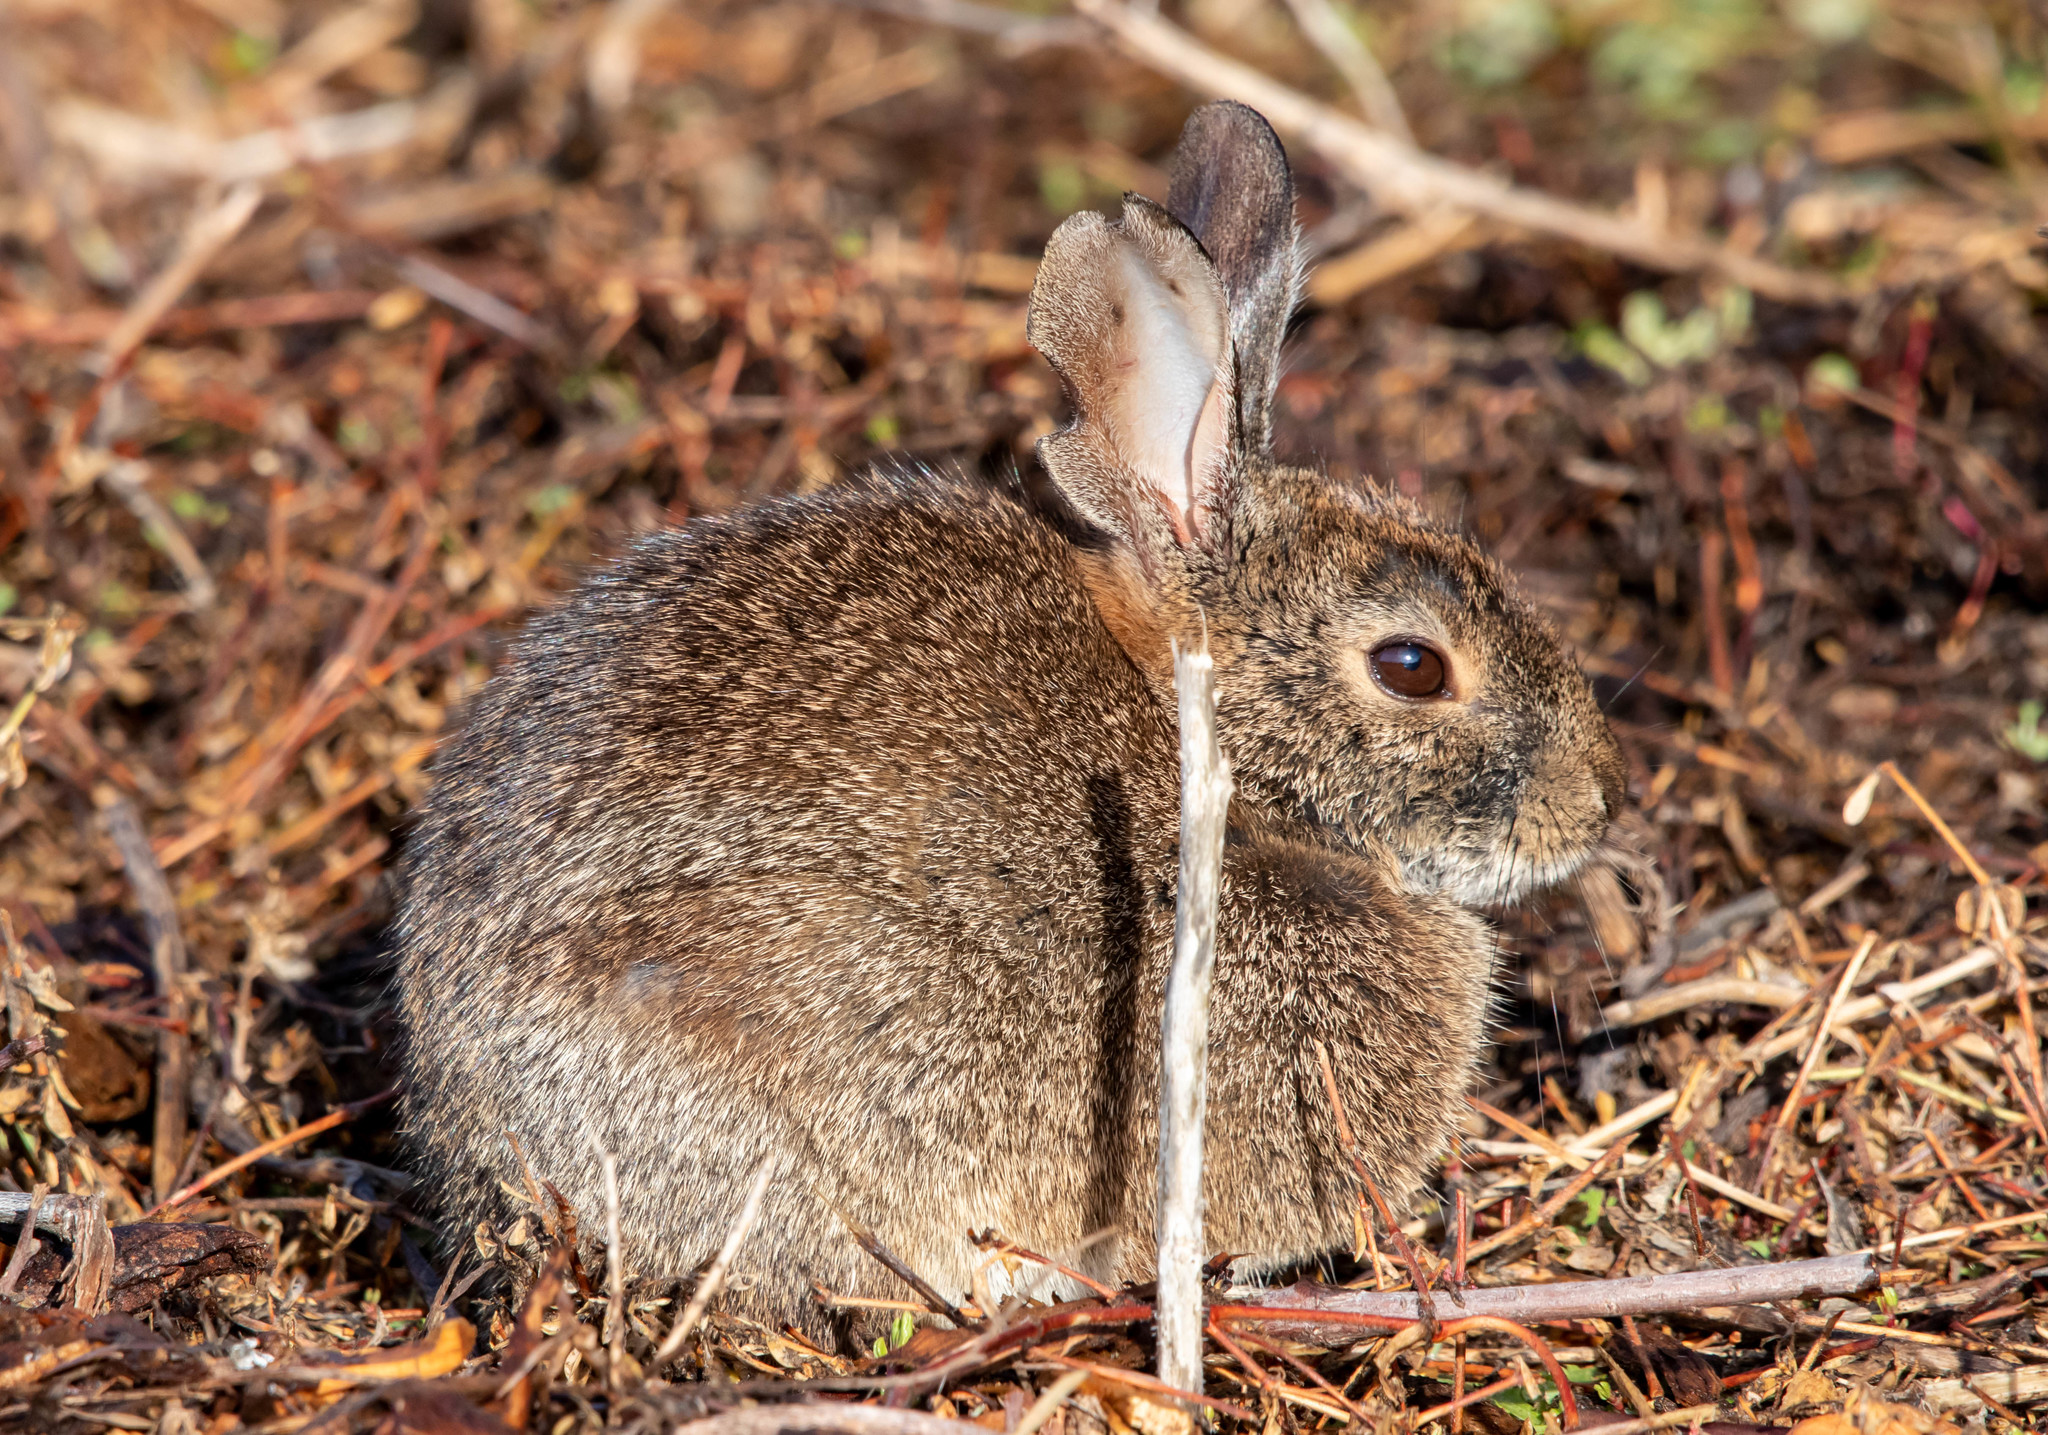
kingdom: Animalia
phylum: Chordata
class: Mammalia
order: Lagomorpha
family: Leporidae
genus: Sylvilagus
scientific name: Sylvilagus bachmani
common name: Brush rabbit
